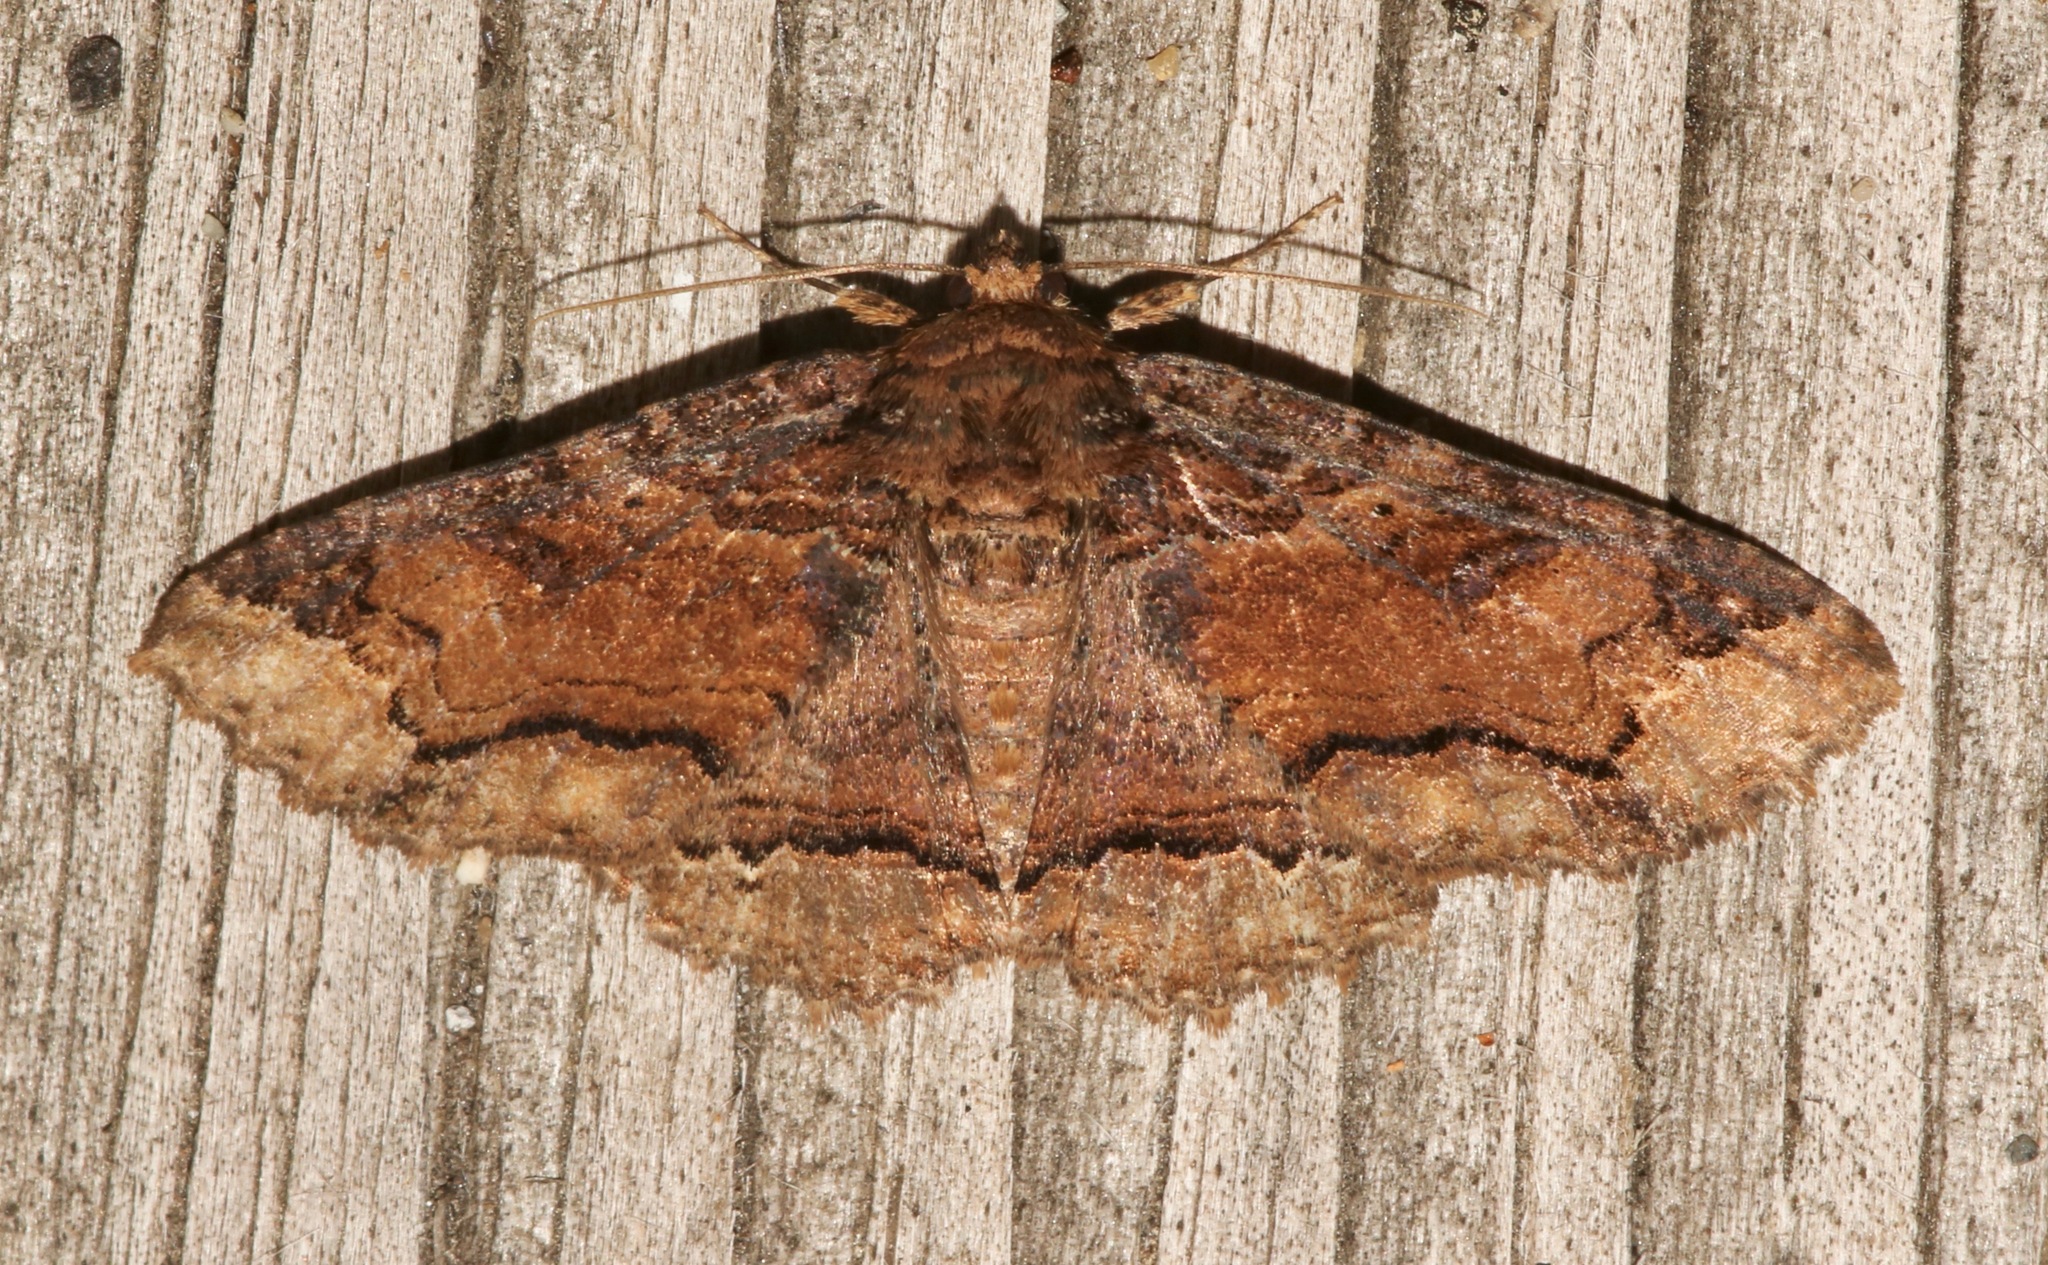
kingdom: Animalia
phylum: Arthropoda
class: Insecta
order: Lepidoptera
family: Erebidae
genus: Zale
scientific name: Zale minerea
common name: Colorful zale moth
